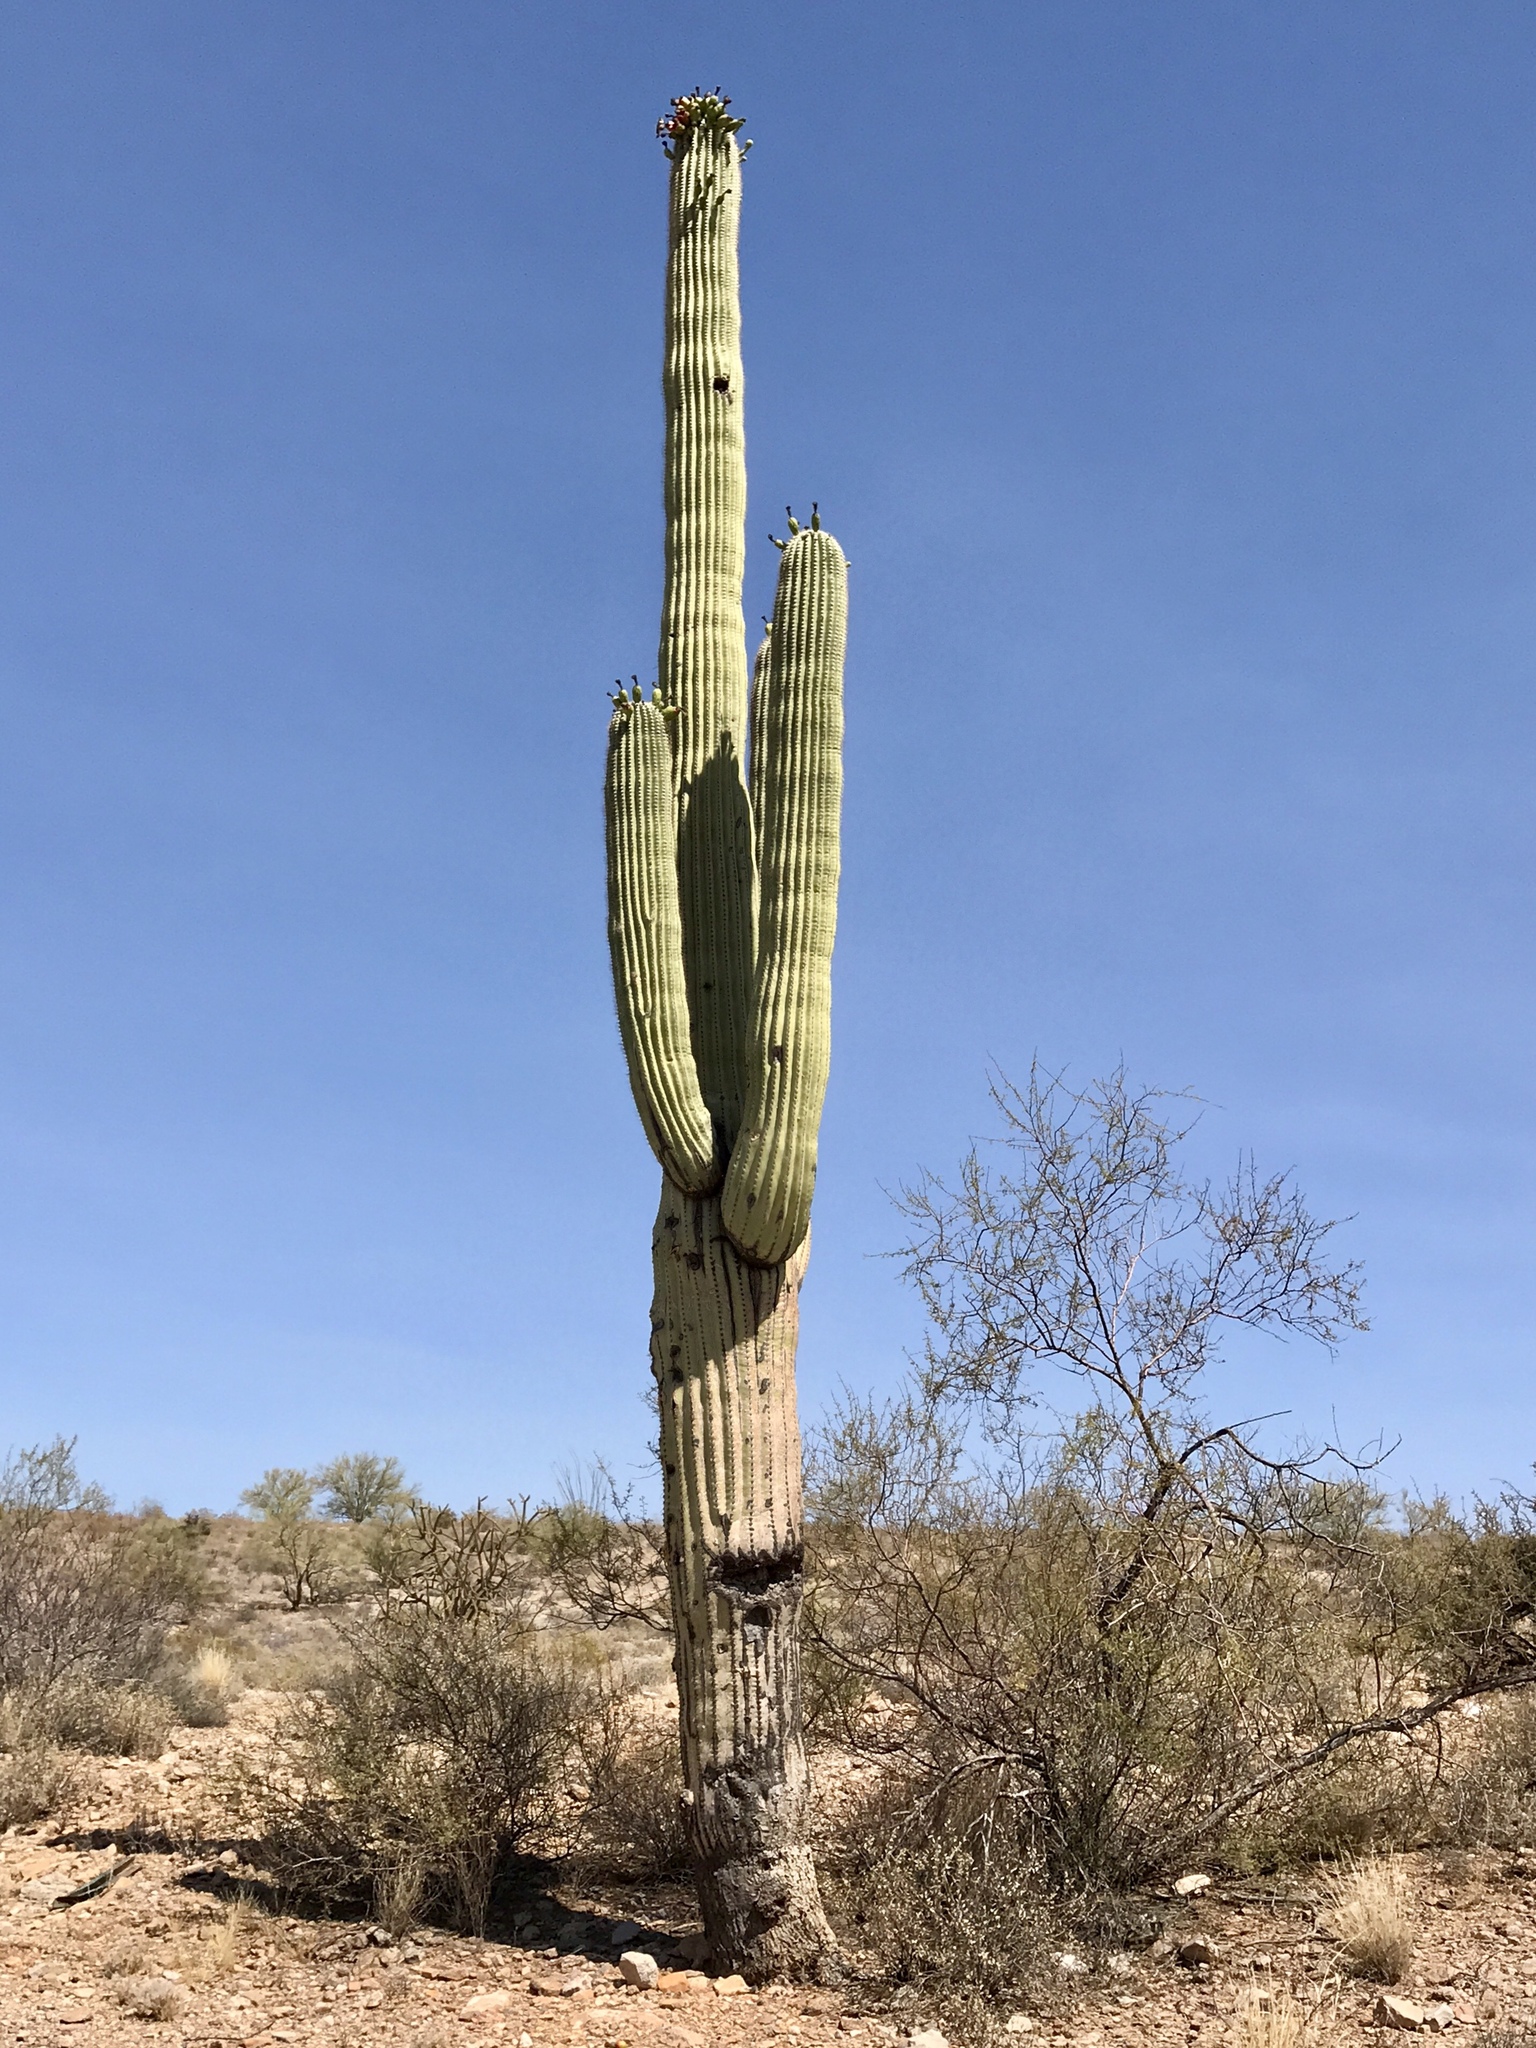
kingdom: Plantae
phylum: Tracheophyta
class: Magnoliopsida
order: Caryophyllales
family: Cactaceae
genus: Carnegiea
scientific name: Carnegiea gigantea
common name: Saguaro
